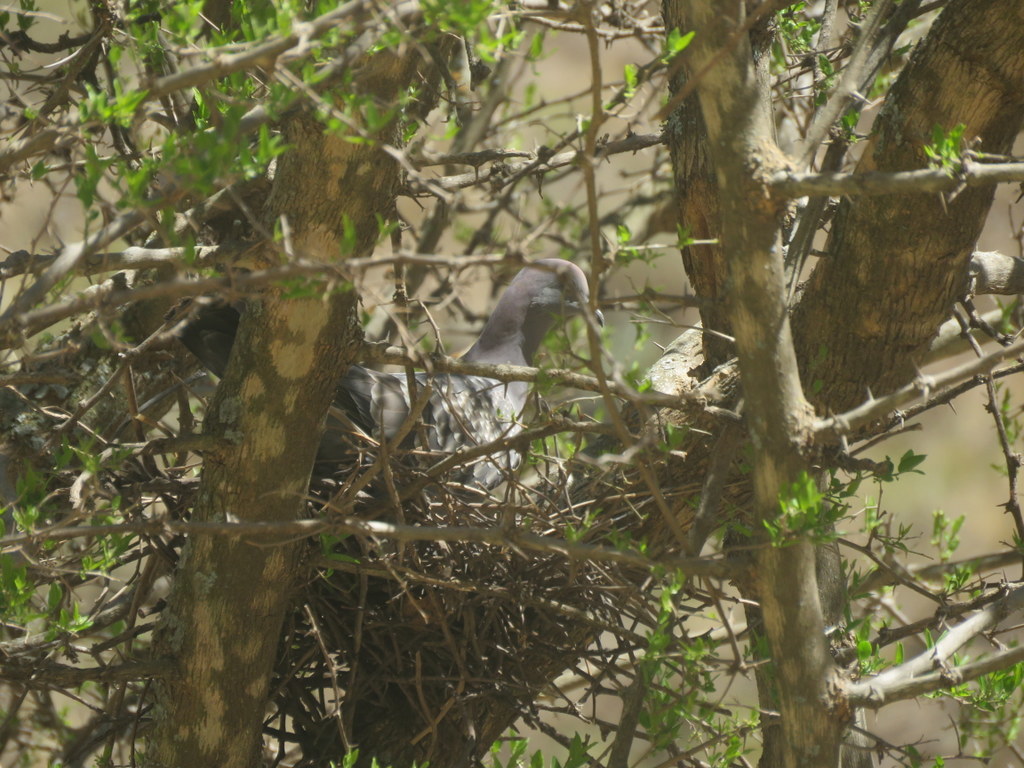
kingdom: Animalia
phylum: Chordata
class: Aves
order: Columbiformes
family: Columbidae
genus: Patagioenas
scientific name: Patagioenas maculosa
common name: Spot-winged pigeon
